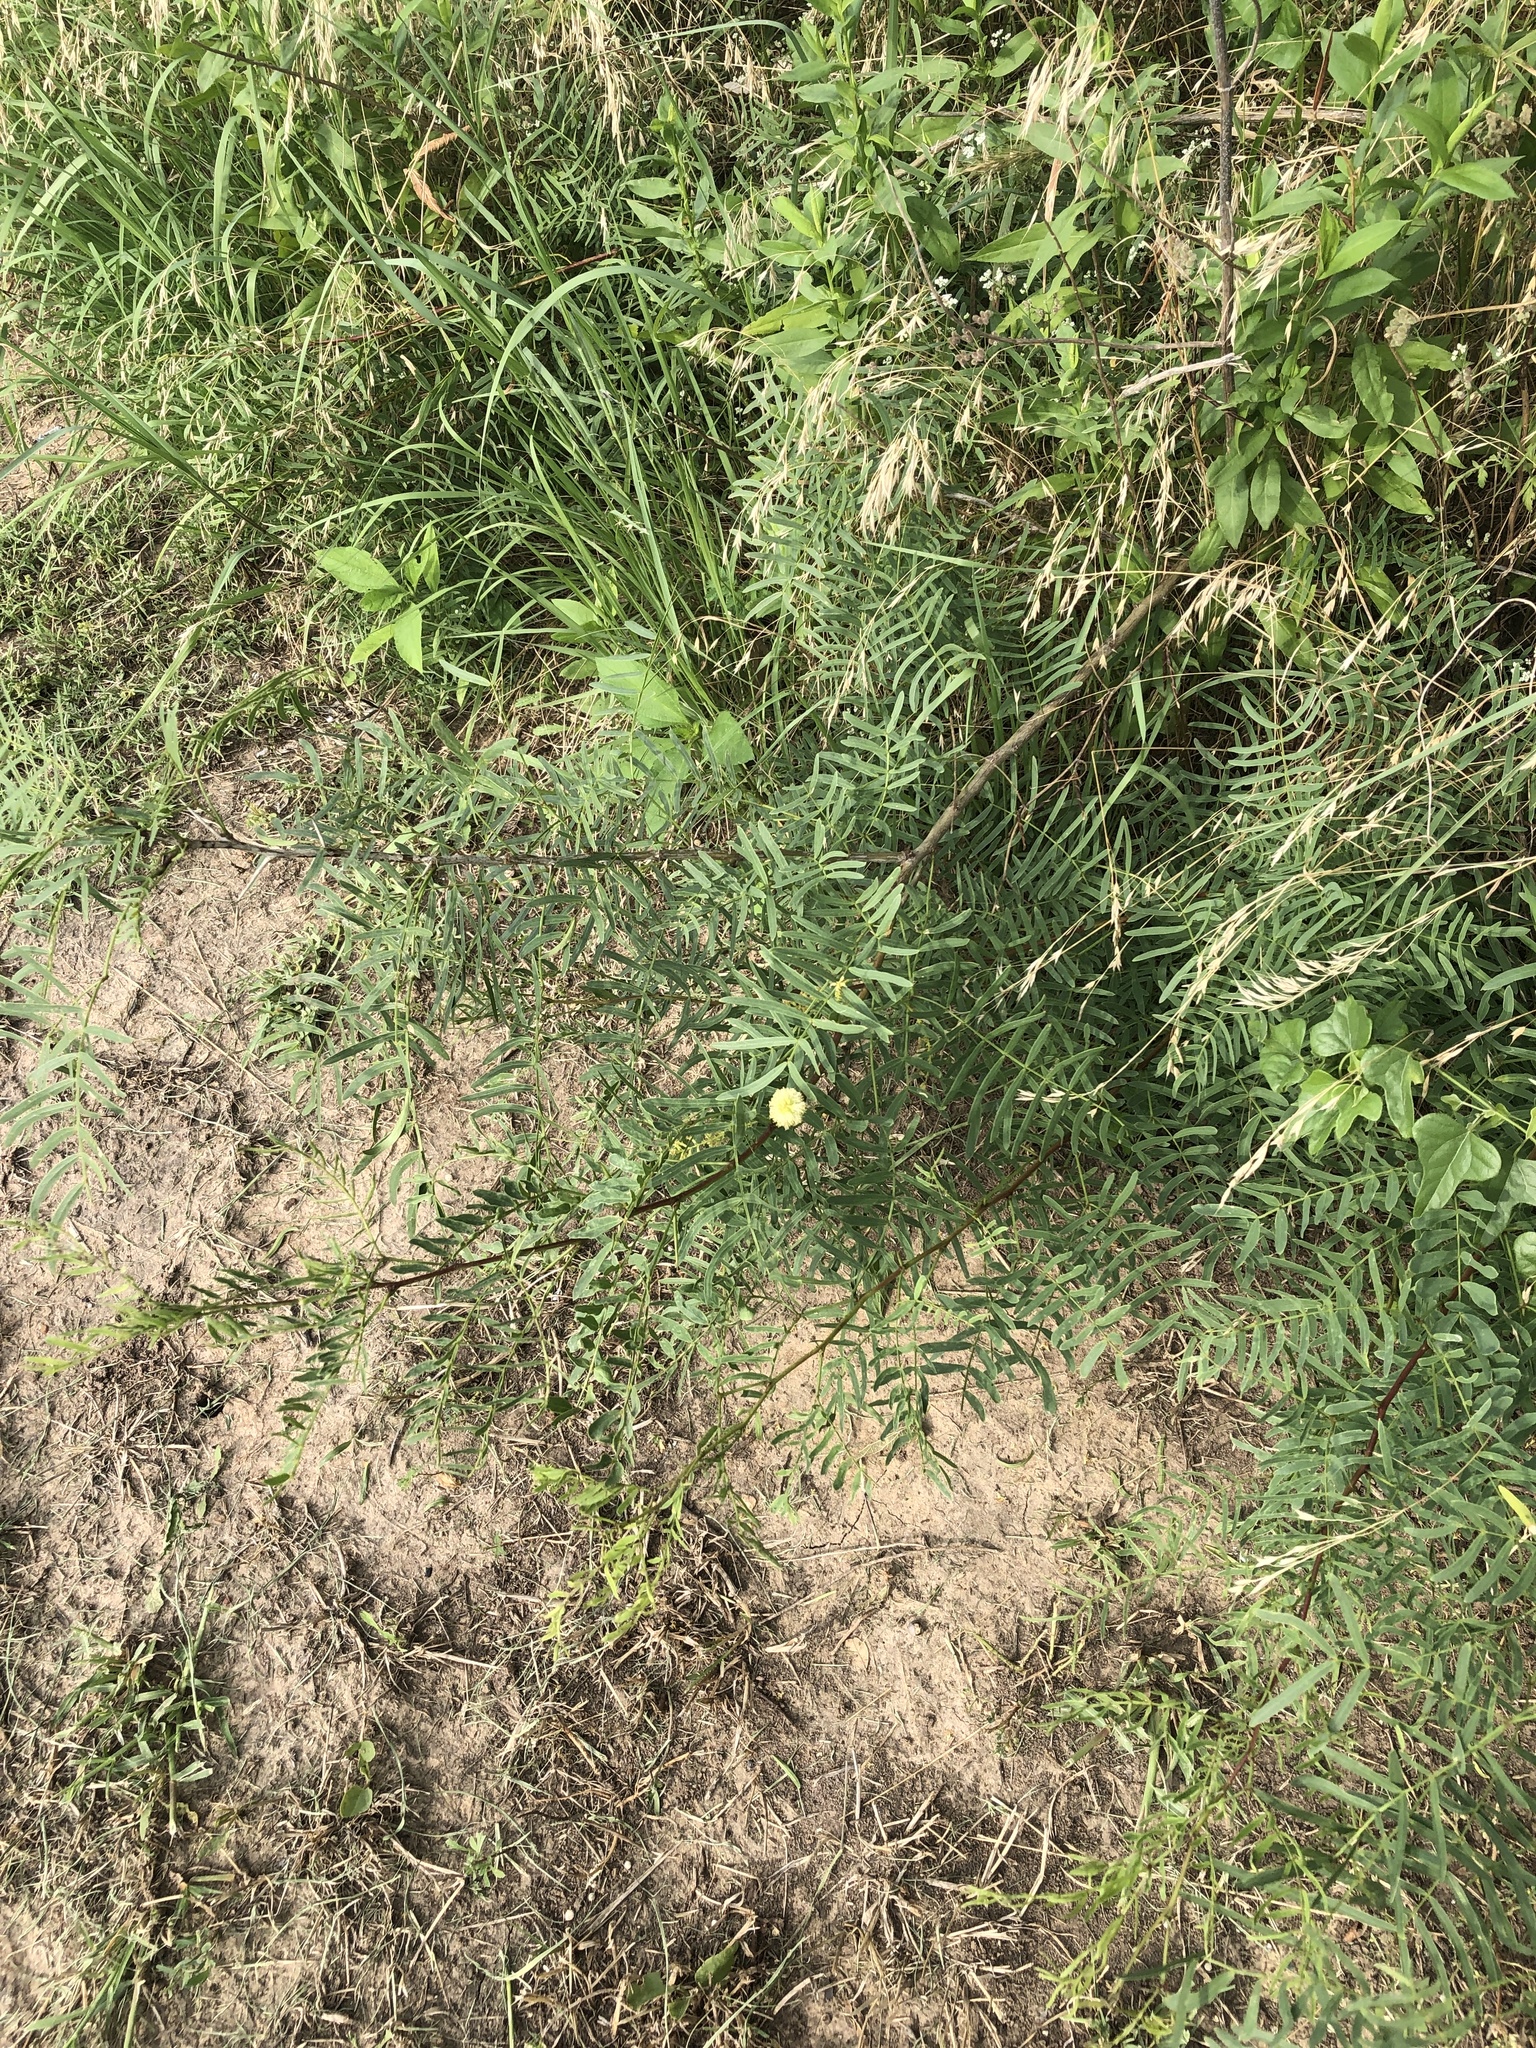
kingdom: Plantae
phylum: Tracheophyta
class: Magnoliopsida
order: Fabales
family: Fabaceae
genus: Prosopis
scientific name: Prosopis glandulosa
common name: Honey mesquite
